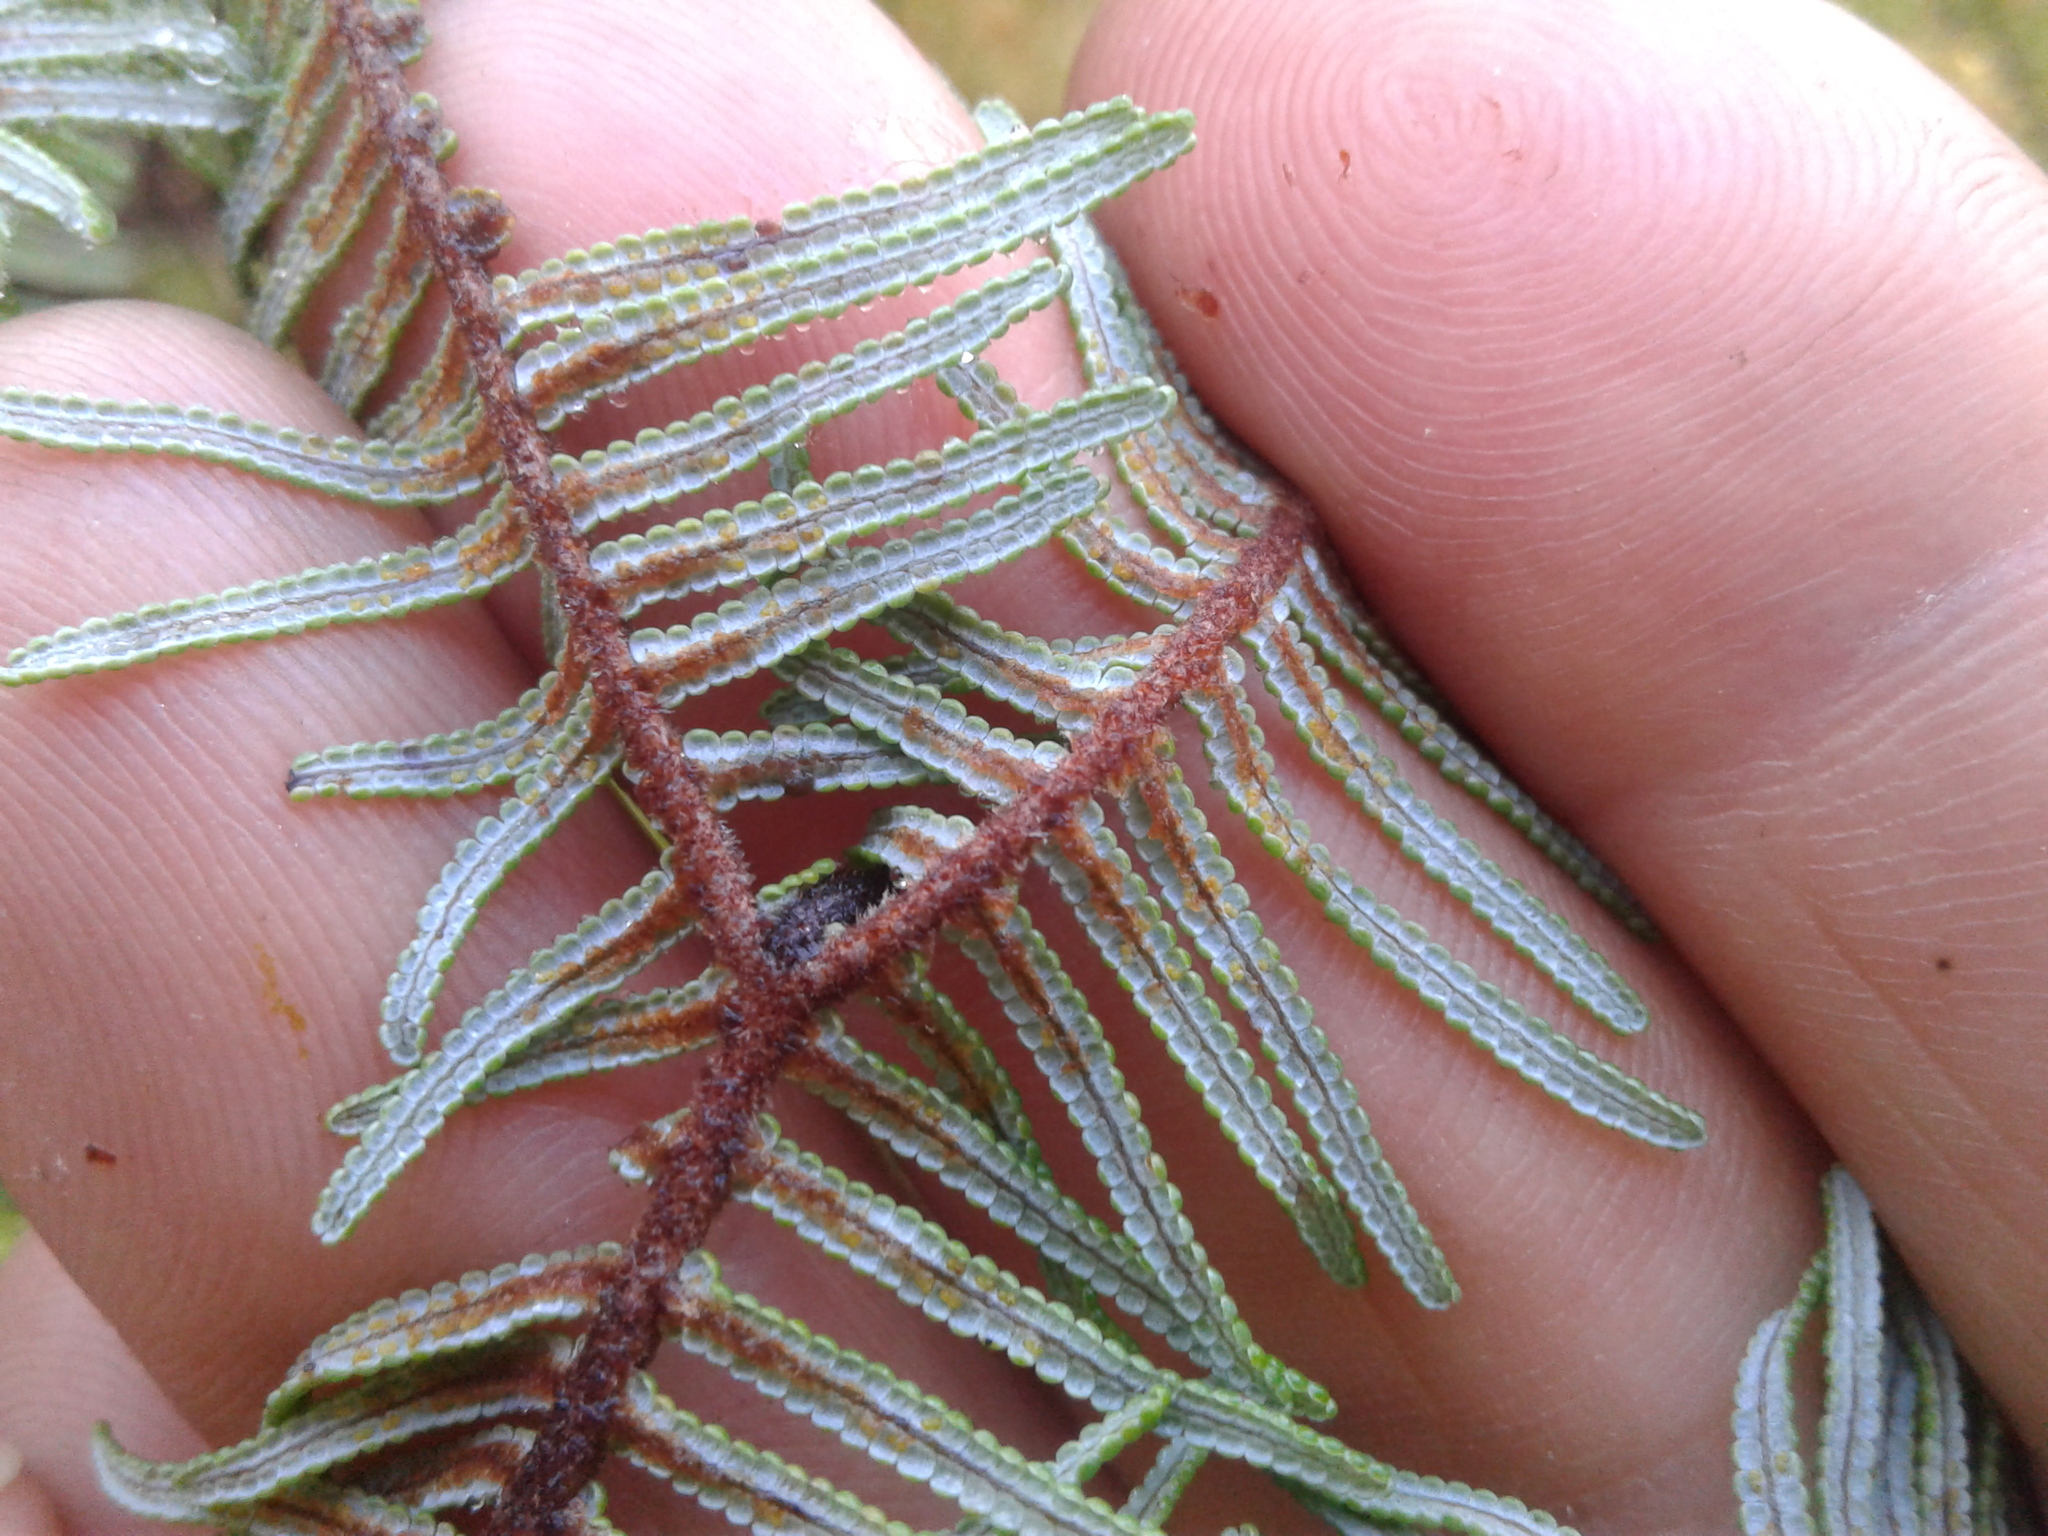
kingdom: Plantae
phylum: Tracheophyta
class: Polypodiopsida
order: Gleicheniales
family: Gleicheniaceae
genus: Gleichenia
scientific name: Gleichenia dicarpa
